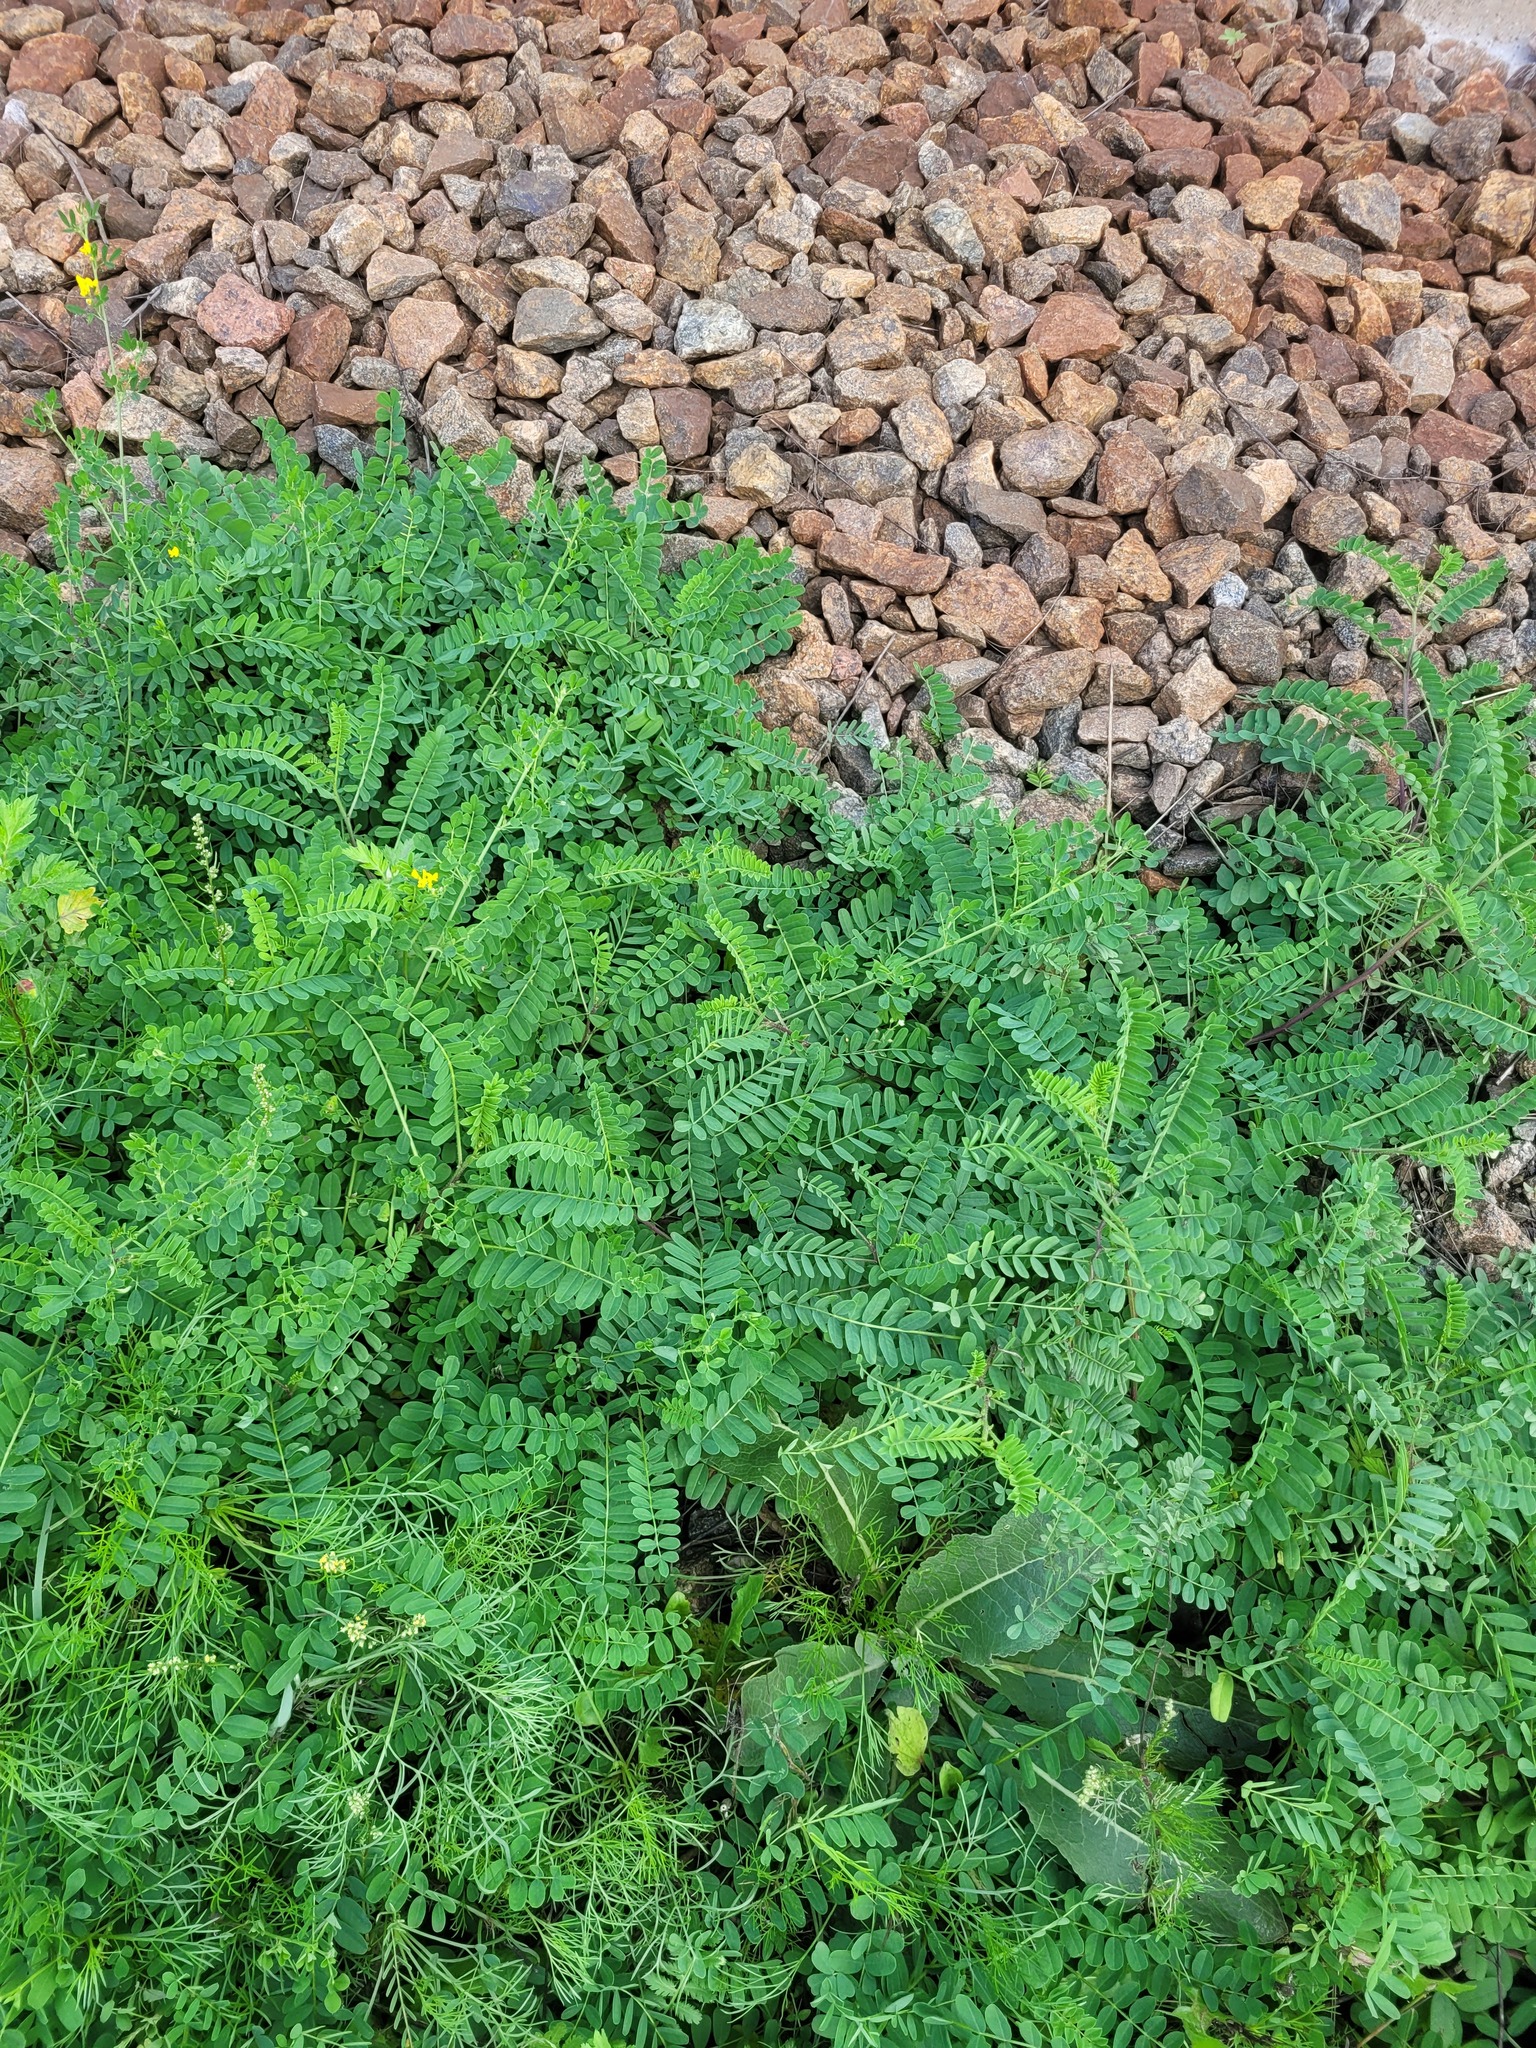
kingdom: Plantae
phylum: Tracheophyta
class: Magnoliopsida
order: Fabales
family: Fabaceae
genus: Coronilla
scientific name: Coronilla varia
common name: Crownvetch
